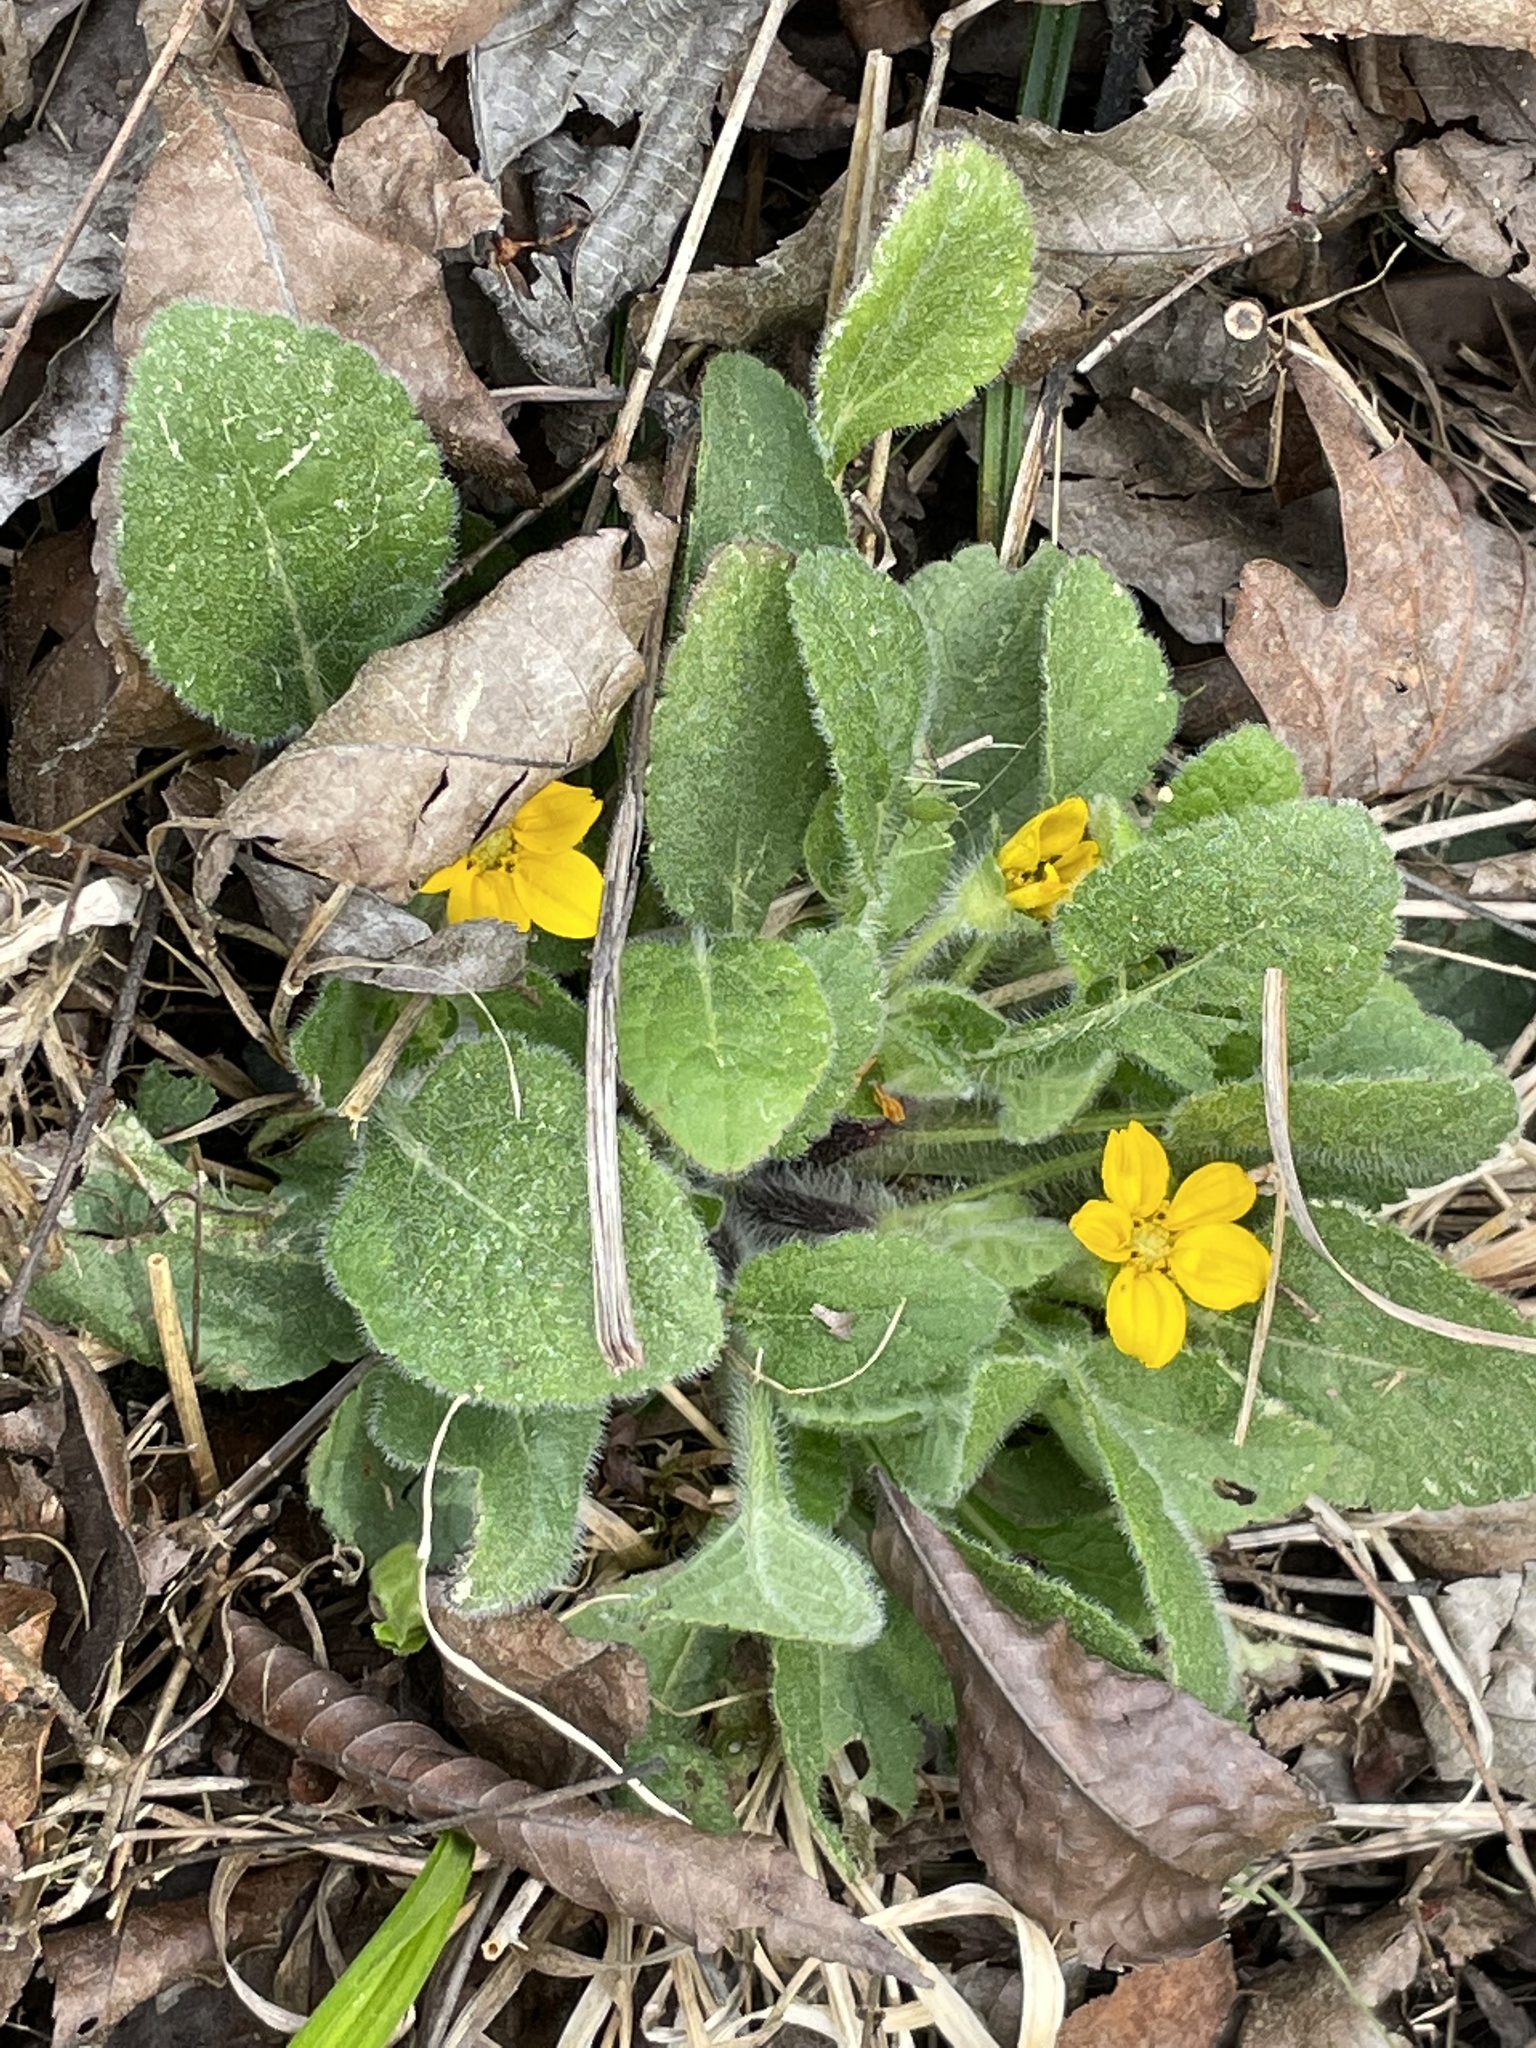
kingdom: Plantae
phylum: Tracheophyta
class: Magnoliopsida
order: Asterales
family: Asteraceae
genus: Chrysogonum
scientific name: Chrysogonum virginianum
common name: Golden-knee
